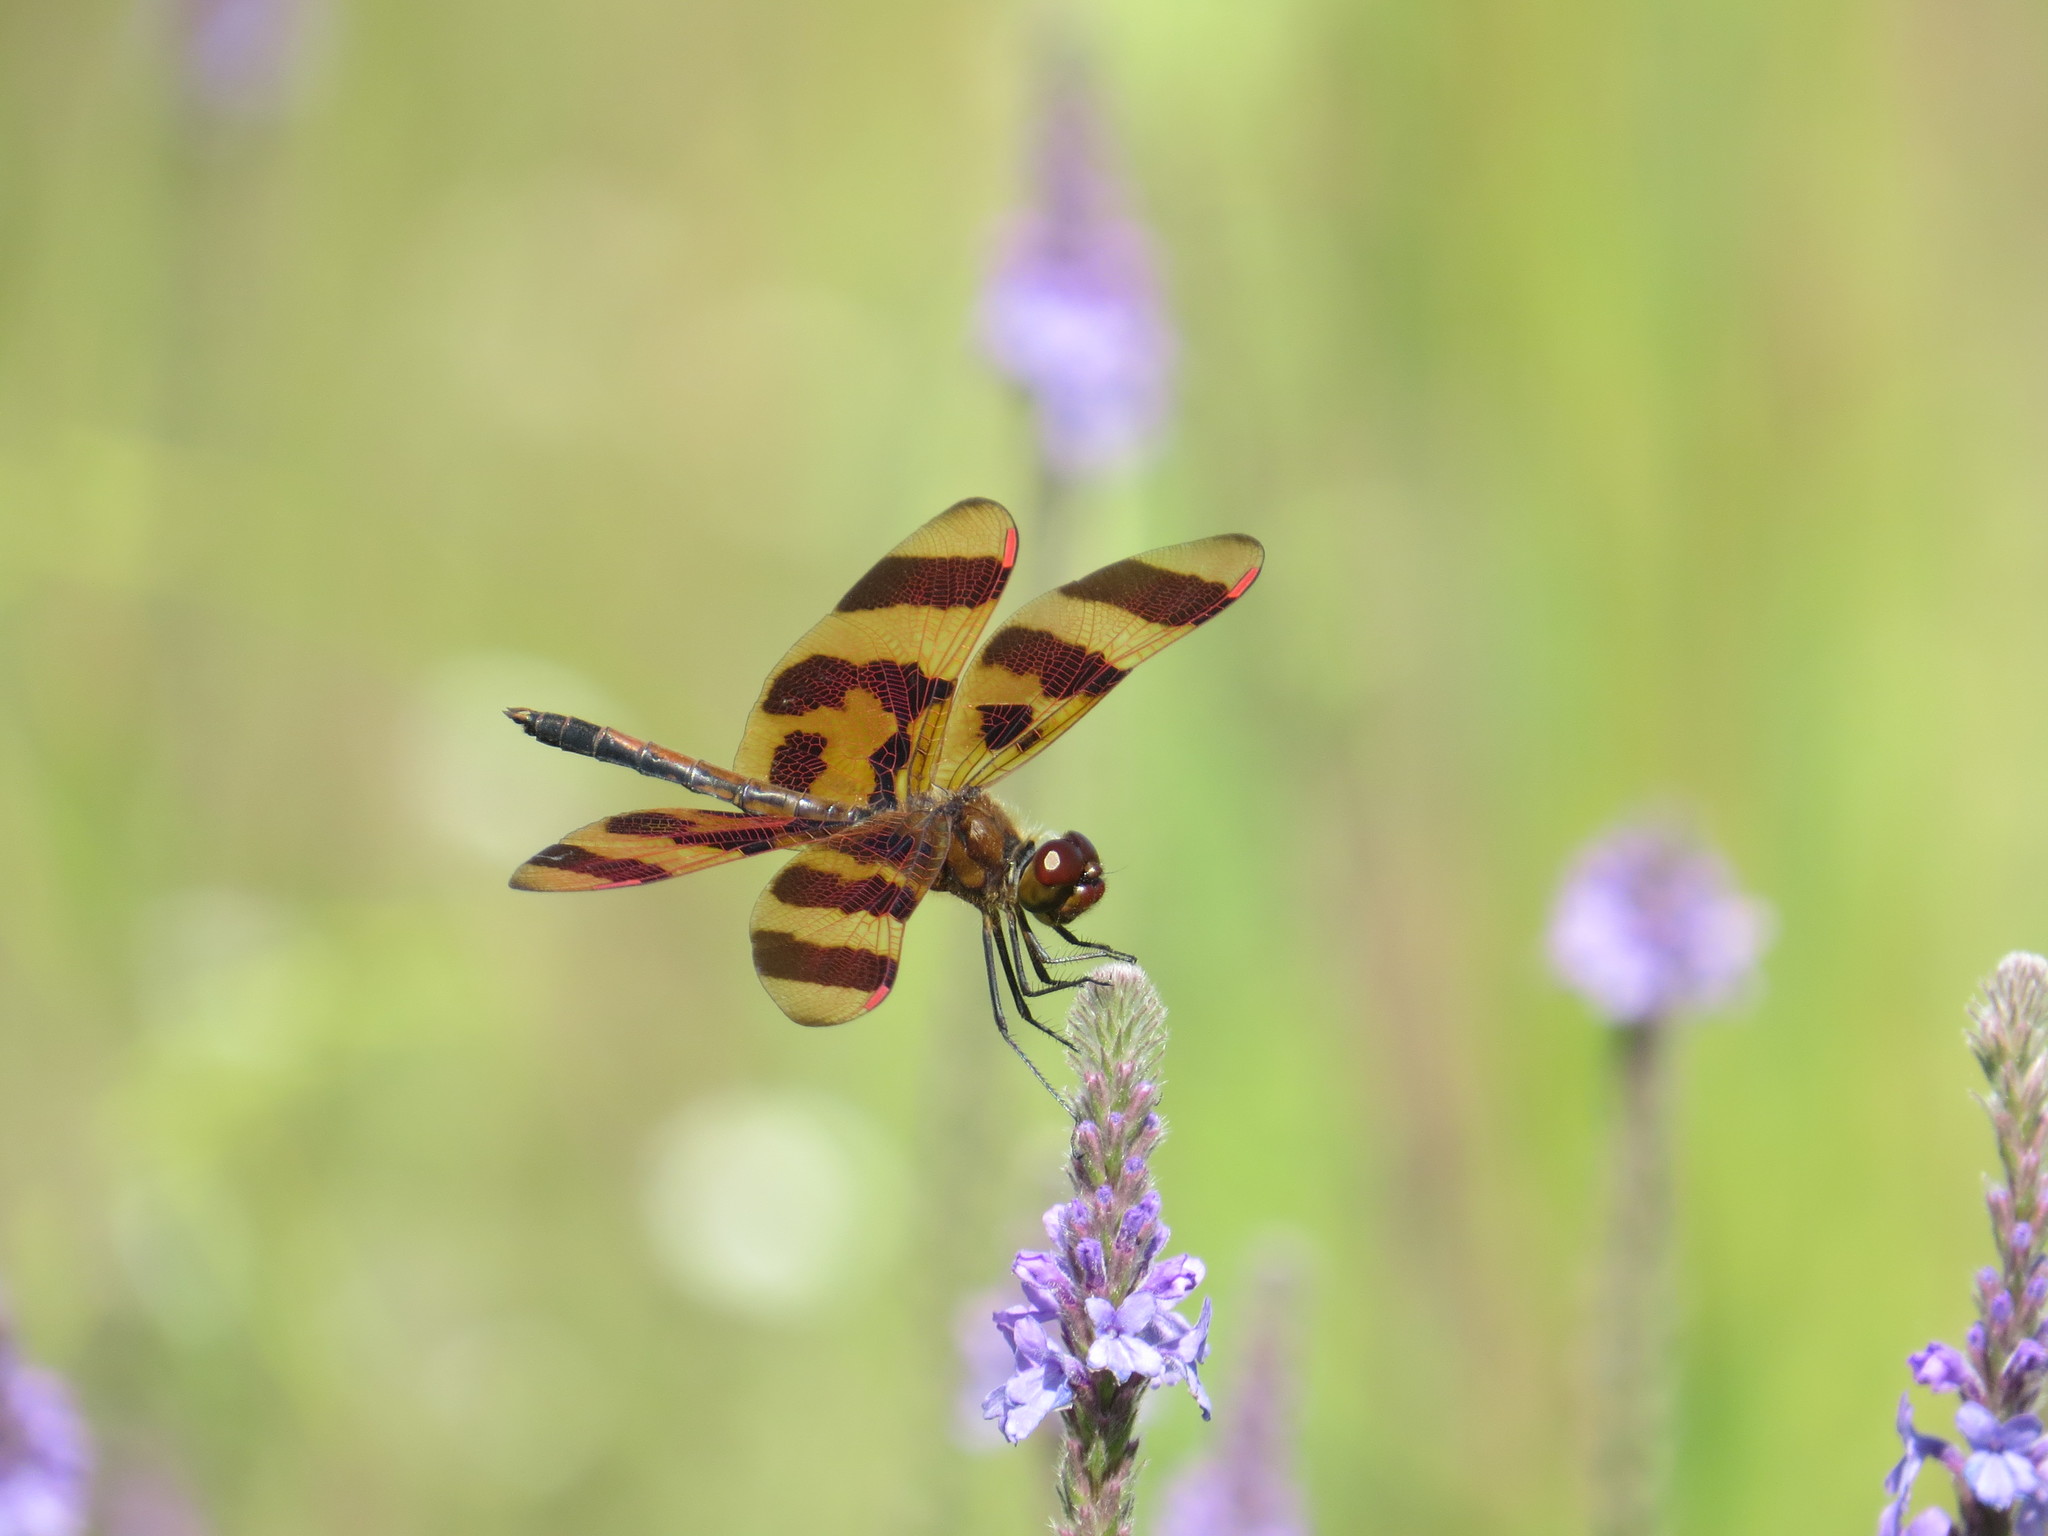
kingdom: Animalia
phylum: Arthropoda
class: Insecta
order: Odonata
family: Libellulidae
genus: Celithemis
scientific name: Celithemis eponina
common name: Halloween pennant
